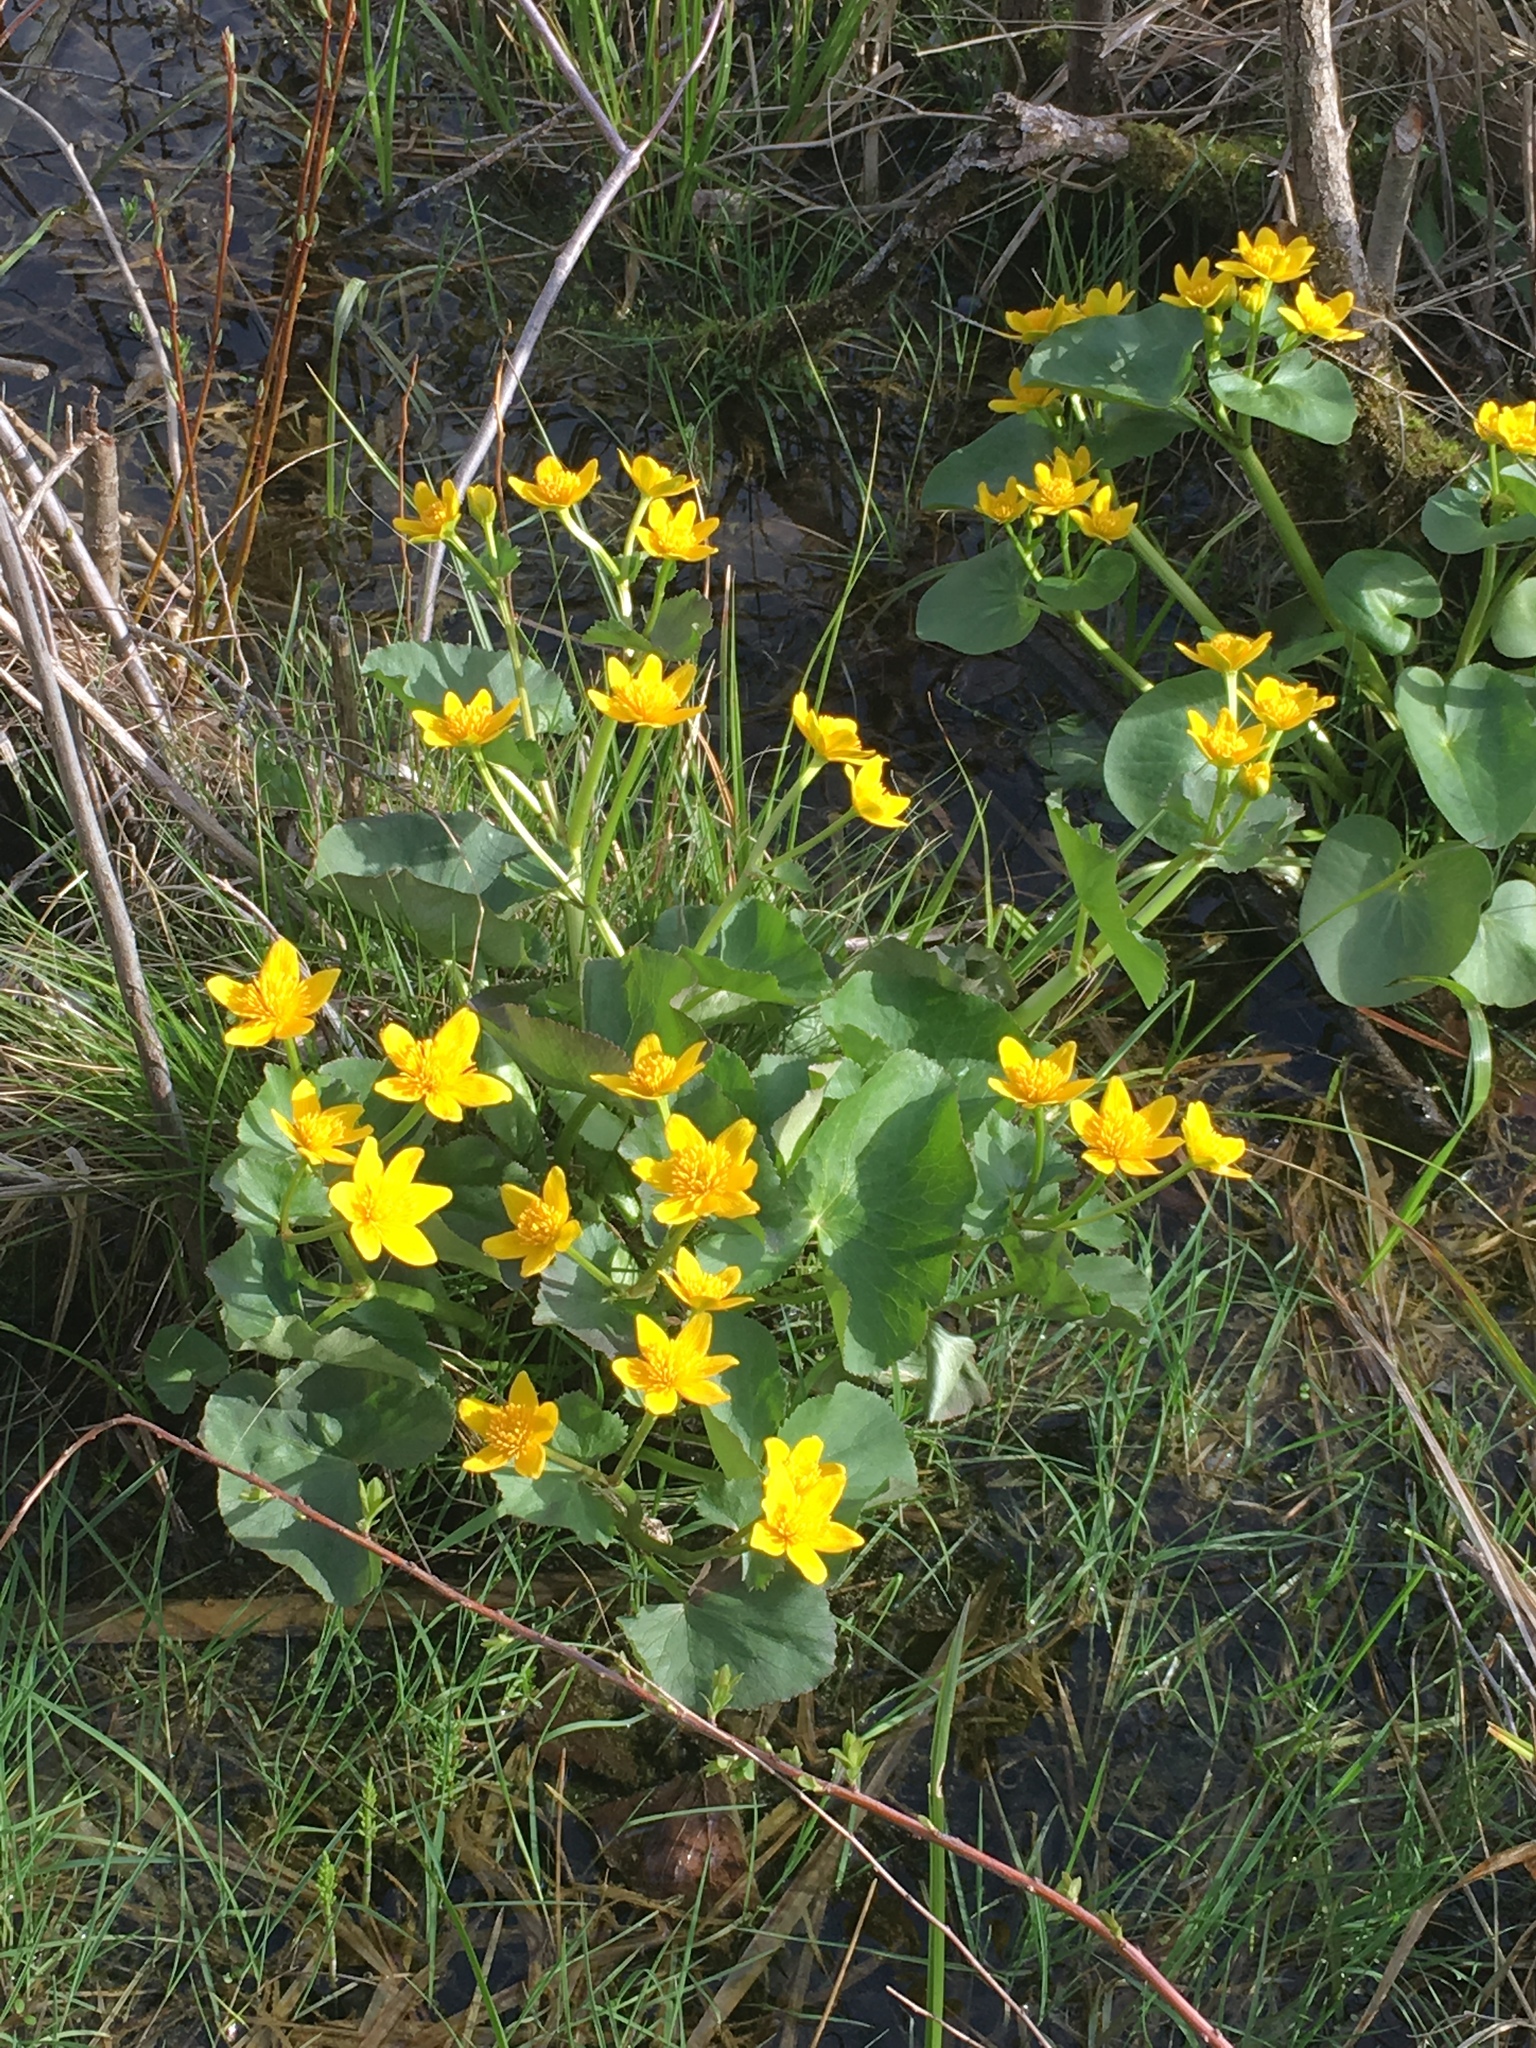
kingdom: Plantae
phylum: Tracheophyta
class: Magnoliopsida
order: Ranunculales
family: Ranunculaceae
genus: Caltha
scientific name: Caltha palustris
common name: Marsh marigold
